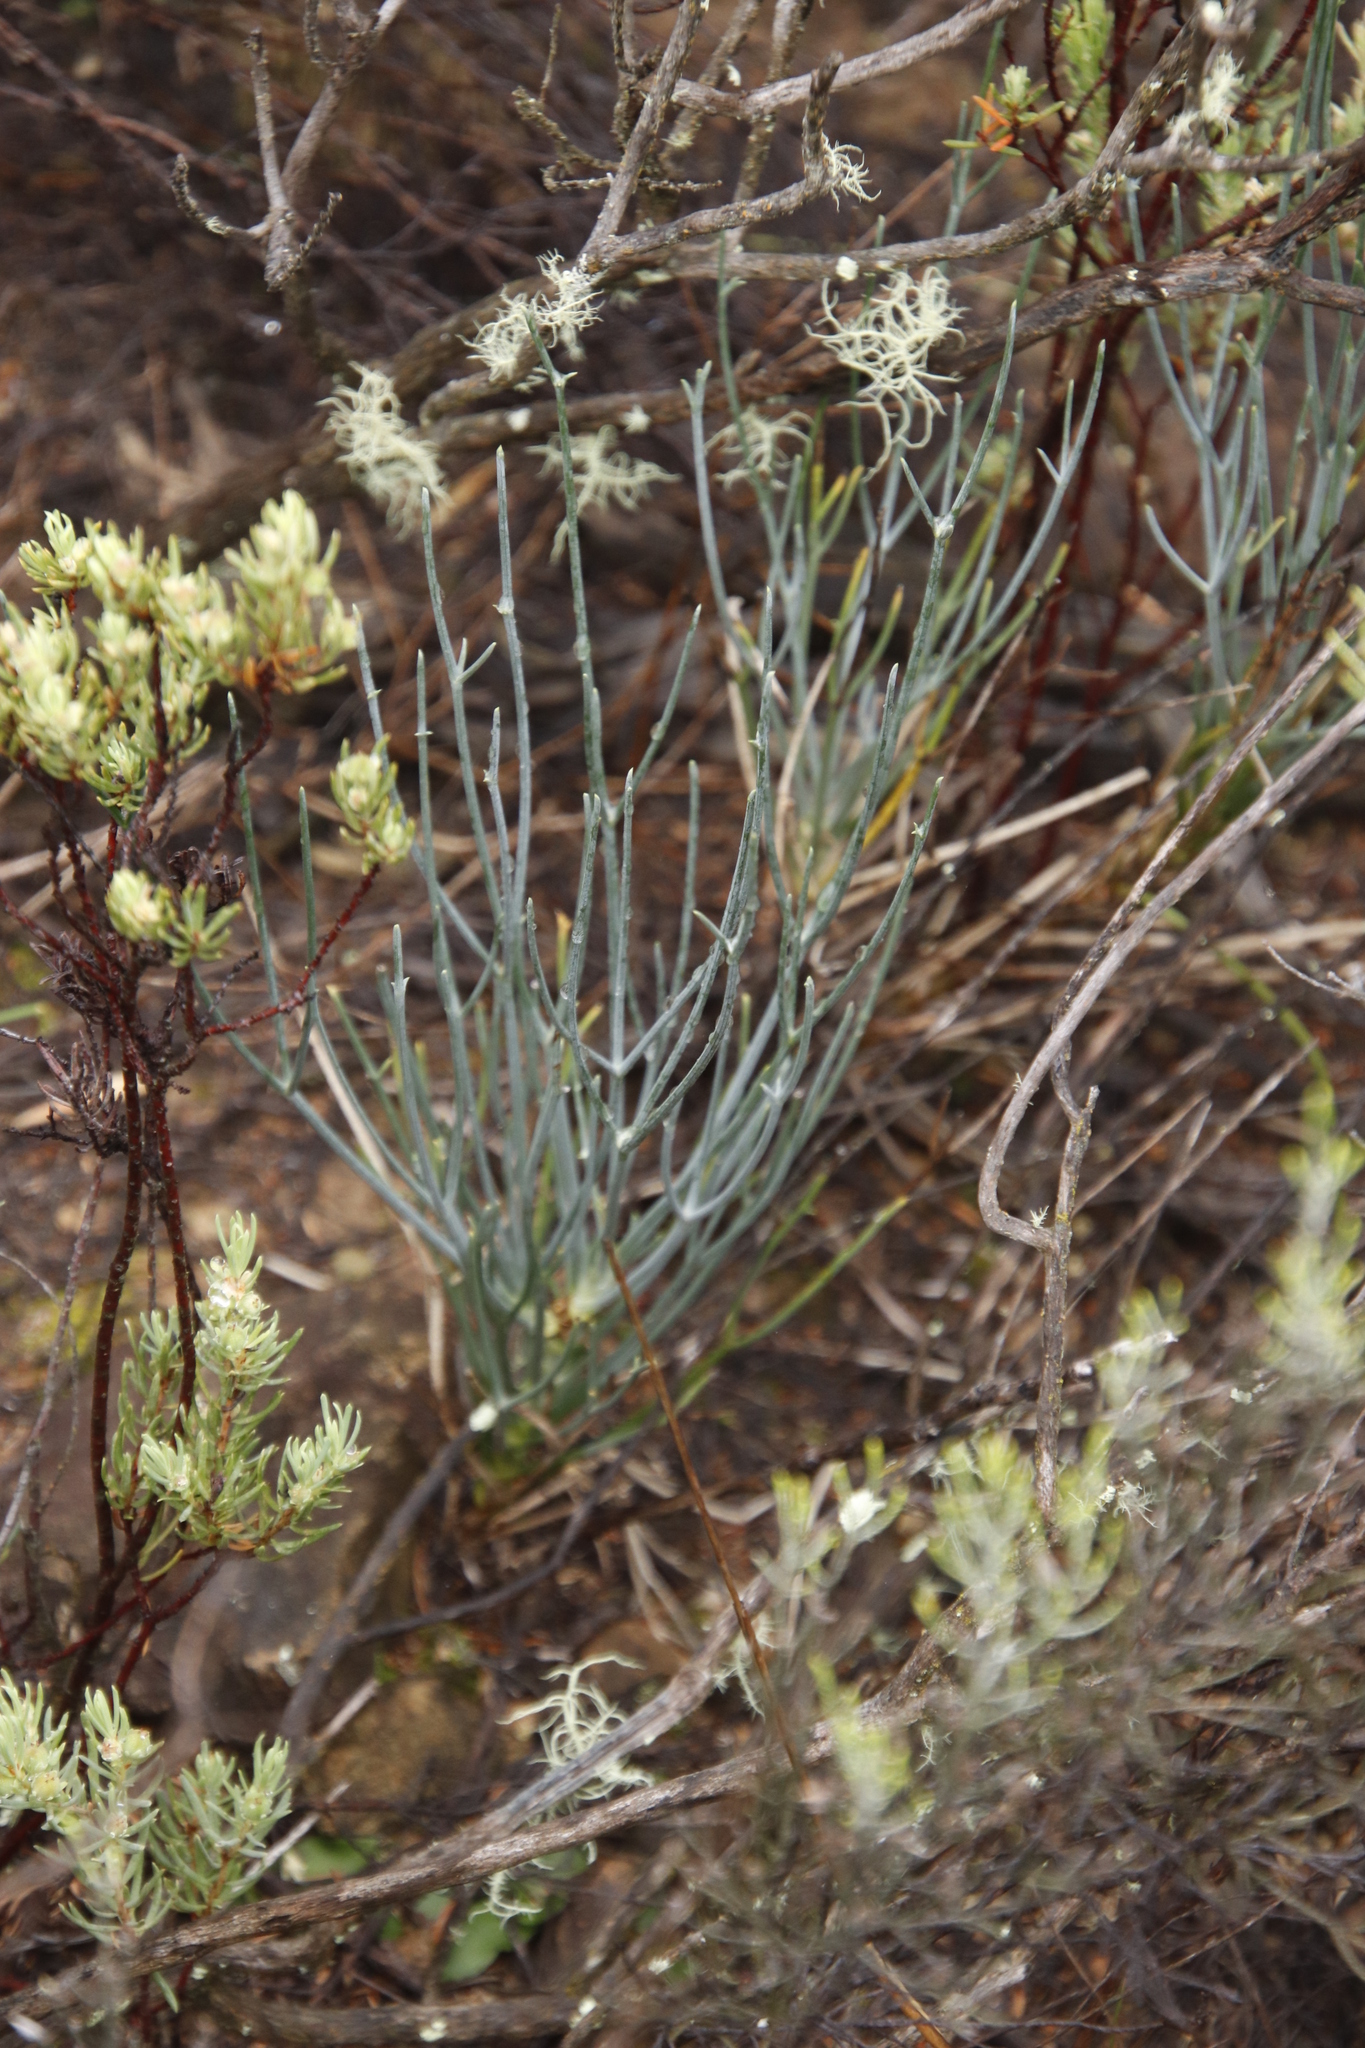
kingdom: Plantae
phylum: Tracheophyta
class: Magnoliopsida
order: Apiales
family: Apiaceae
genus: Anginon
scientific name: Anginon swellendamense
